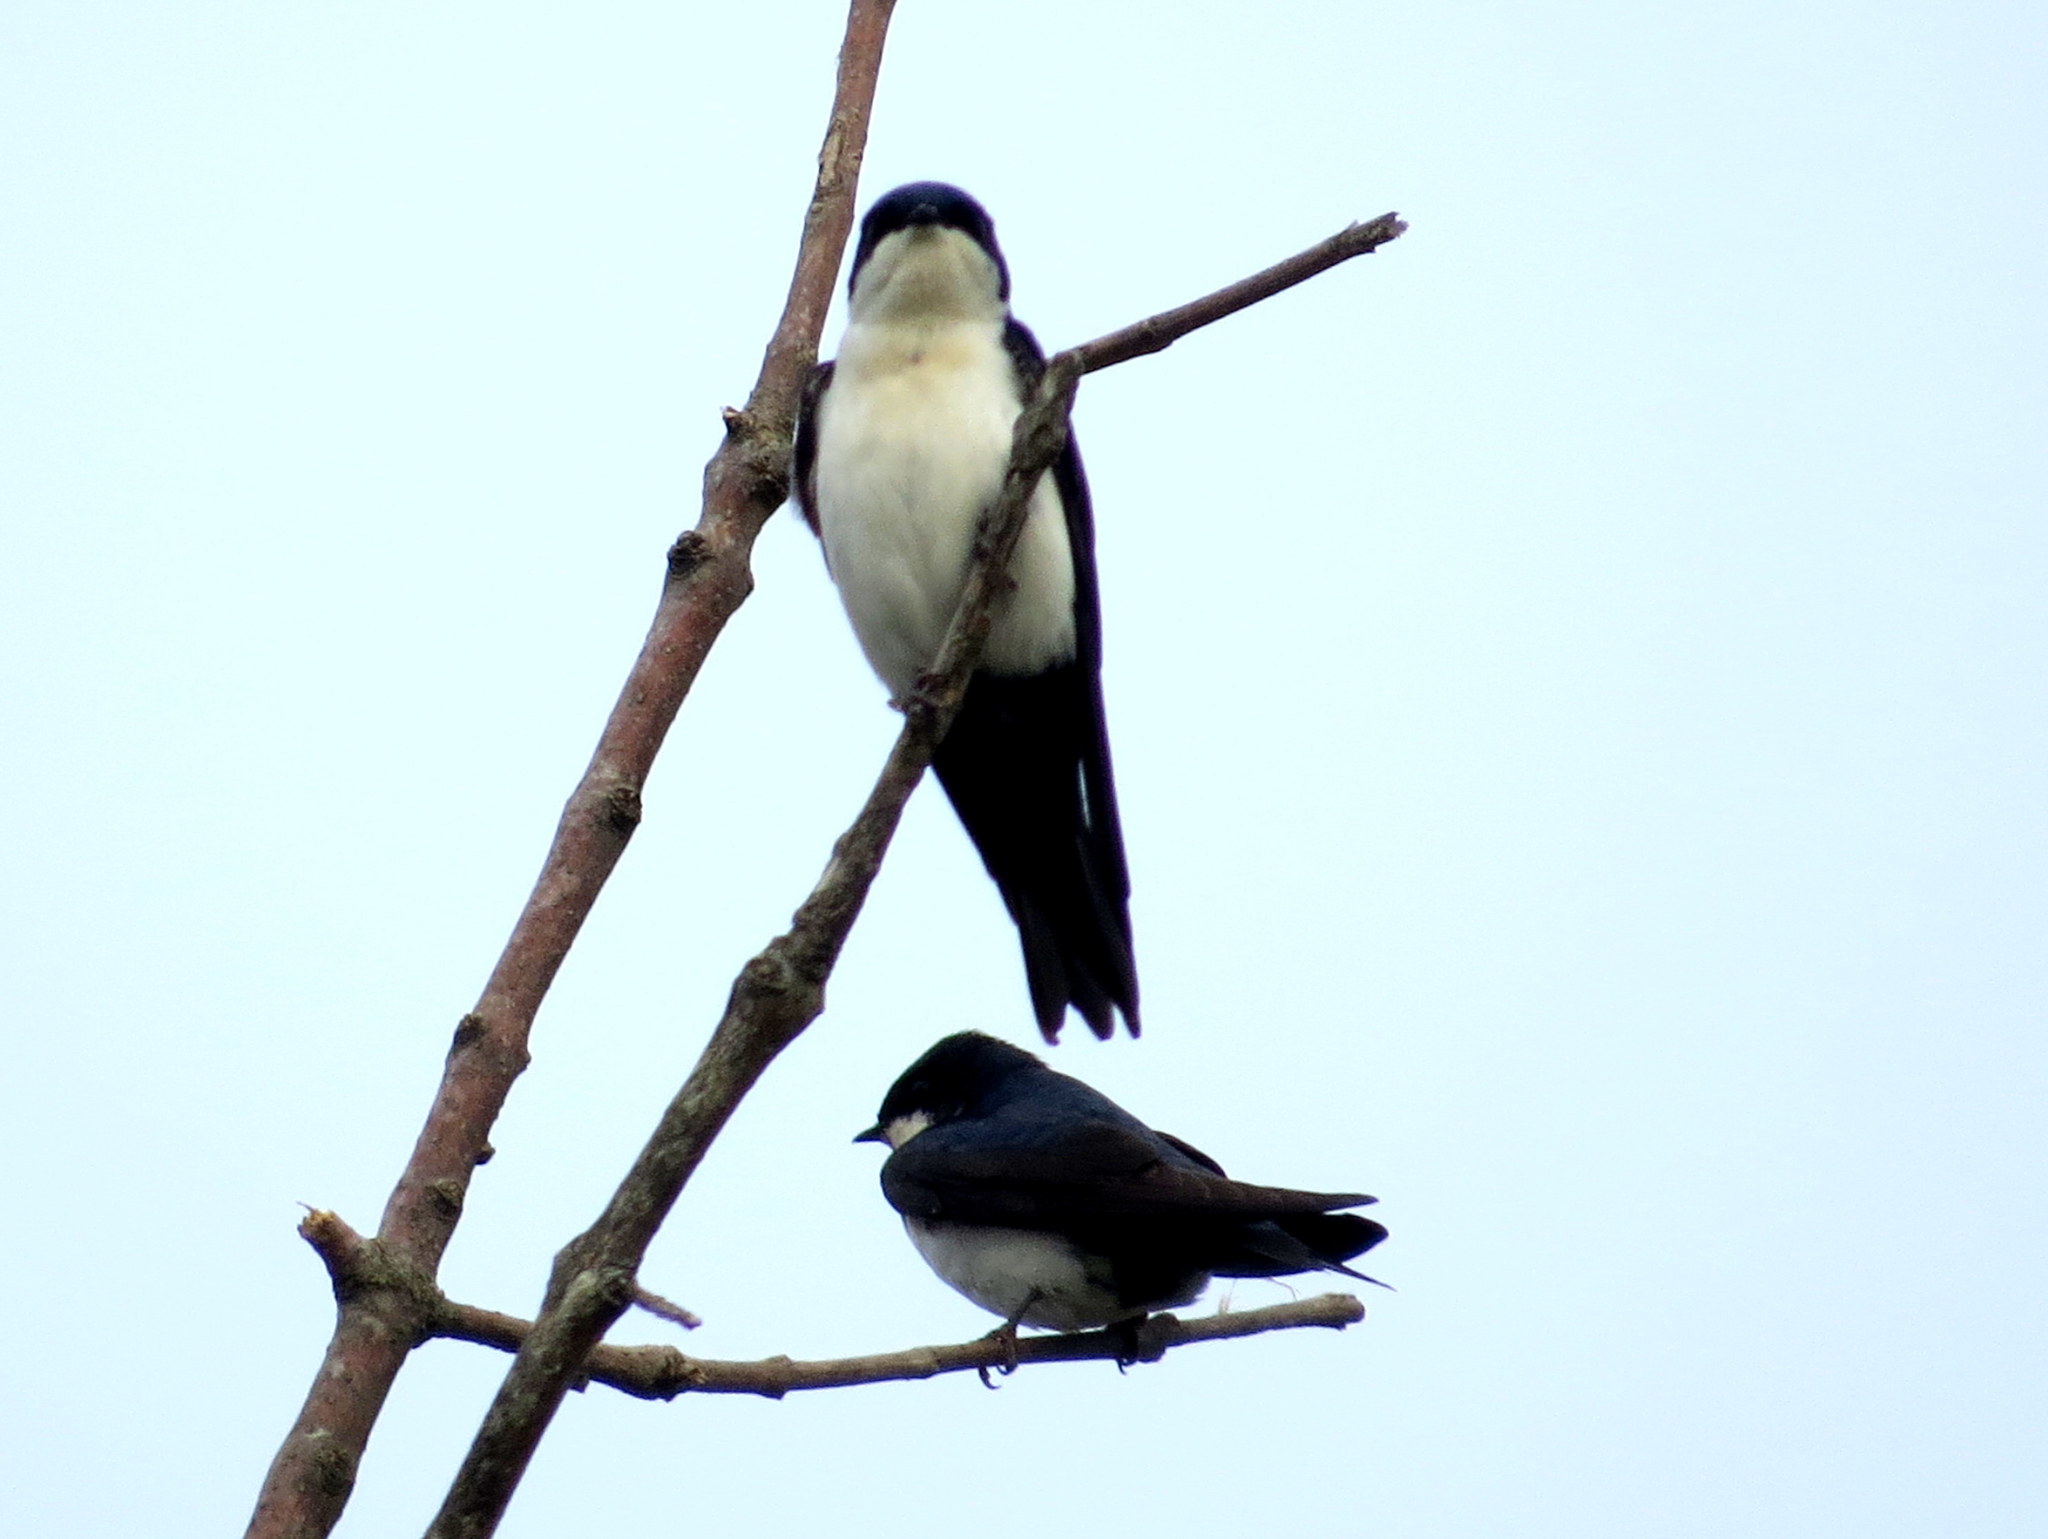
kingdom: Animalia
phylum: Chordata
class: Aves
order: Passeriformes
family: Hirundinidae
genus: Notiochelidon
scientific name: Notiochelidon cyanoleuca
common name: Blue-and-white swallow
